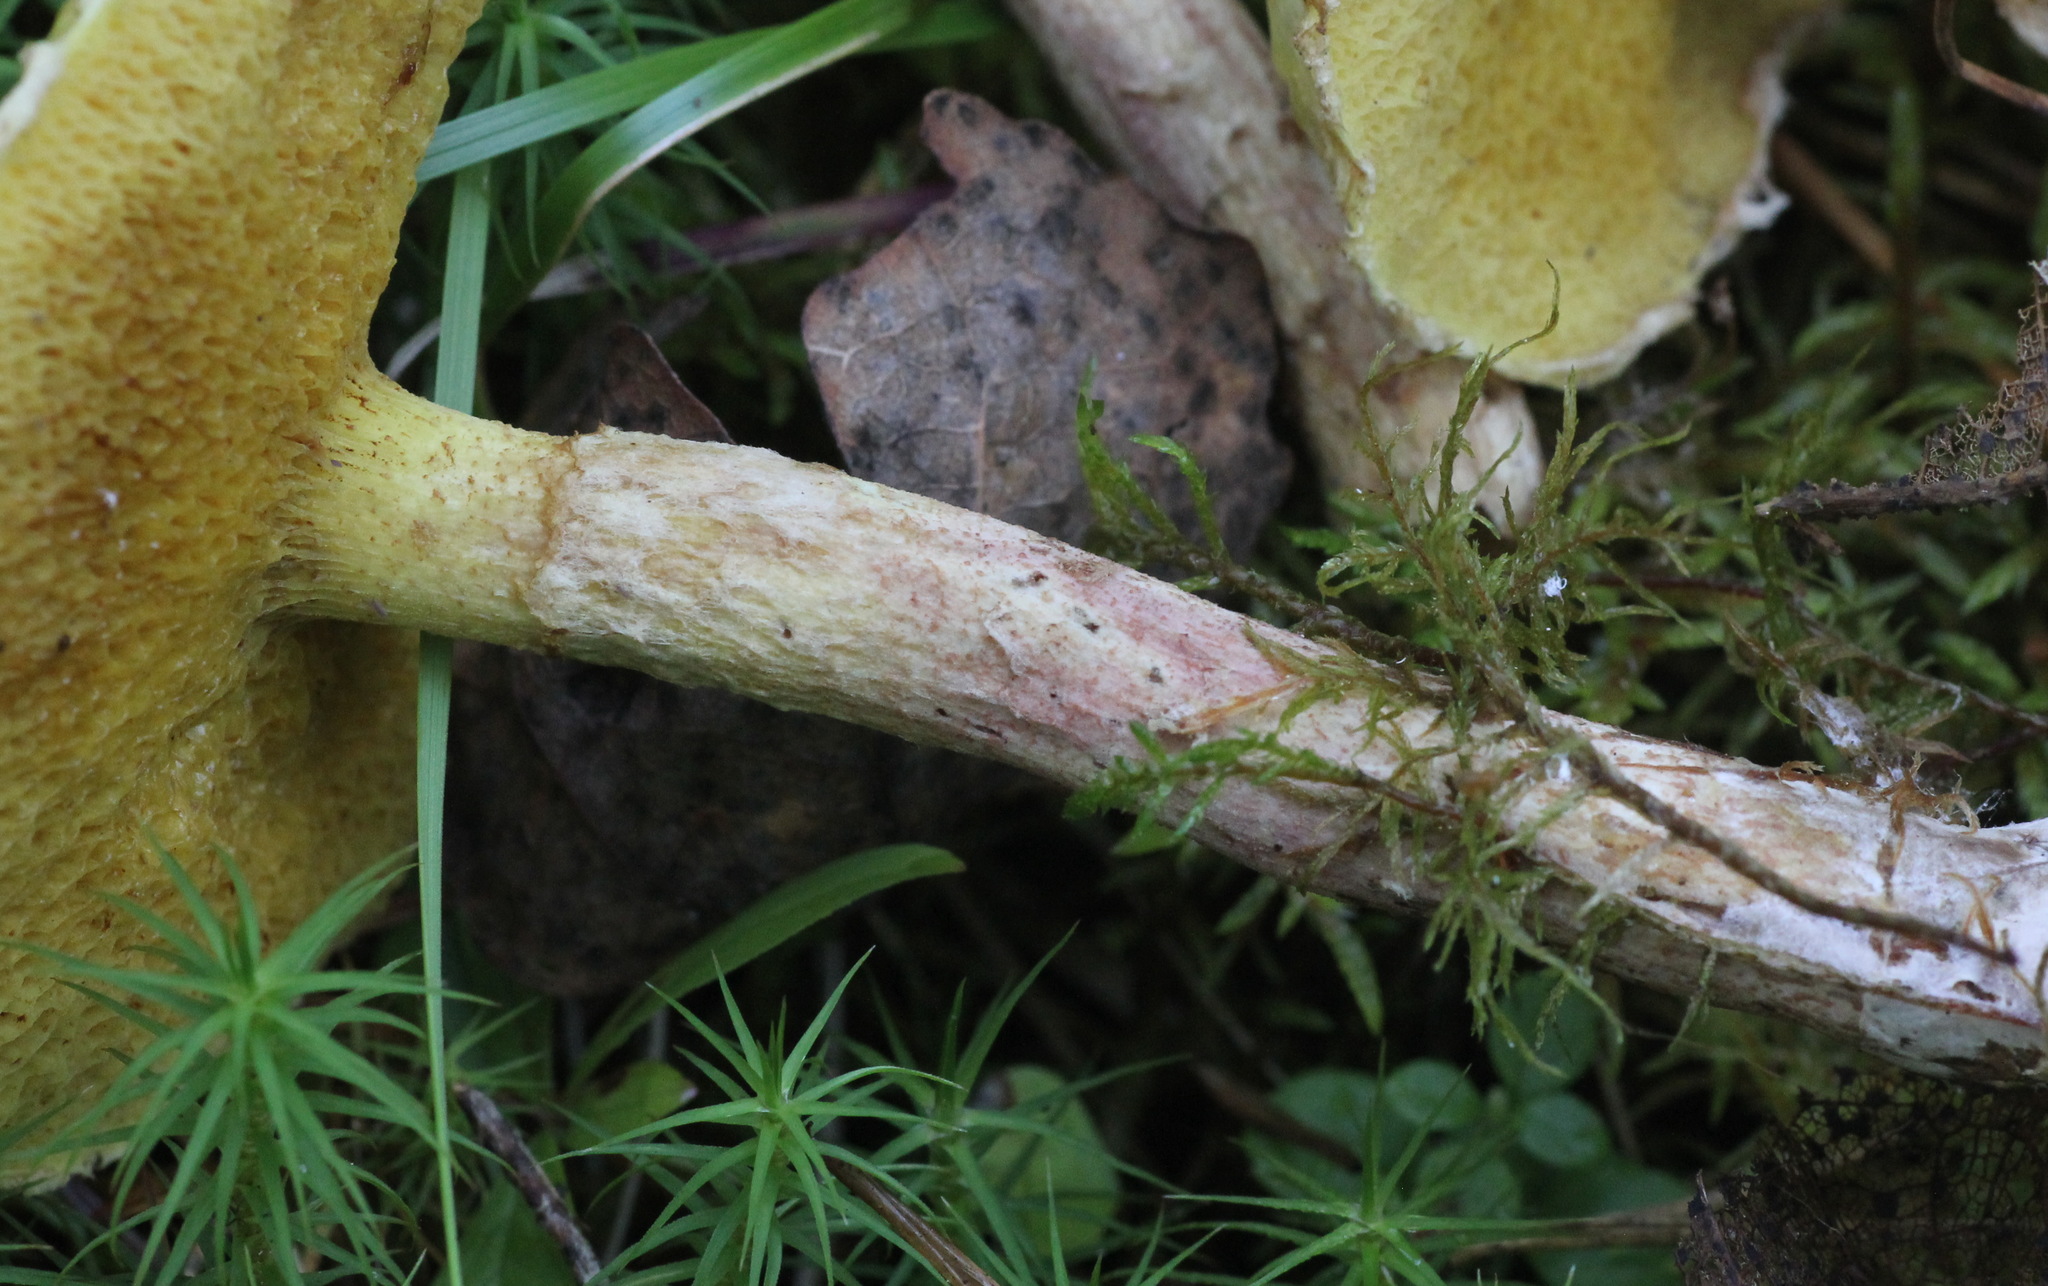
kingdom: Fungi
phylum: Basidiomycota
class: Agaricomycetes
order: Boletales
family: Suillaceae
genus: Suillus
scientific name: Suillus americanus
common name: Chicken fat mushroom
